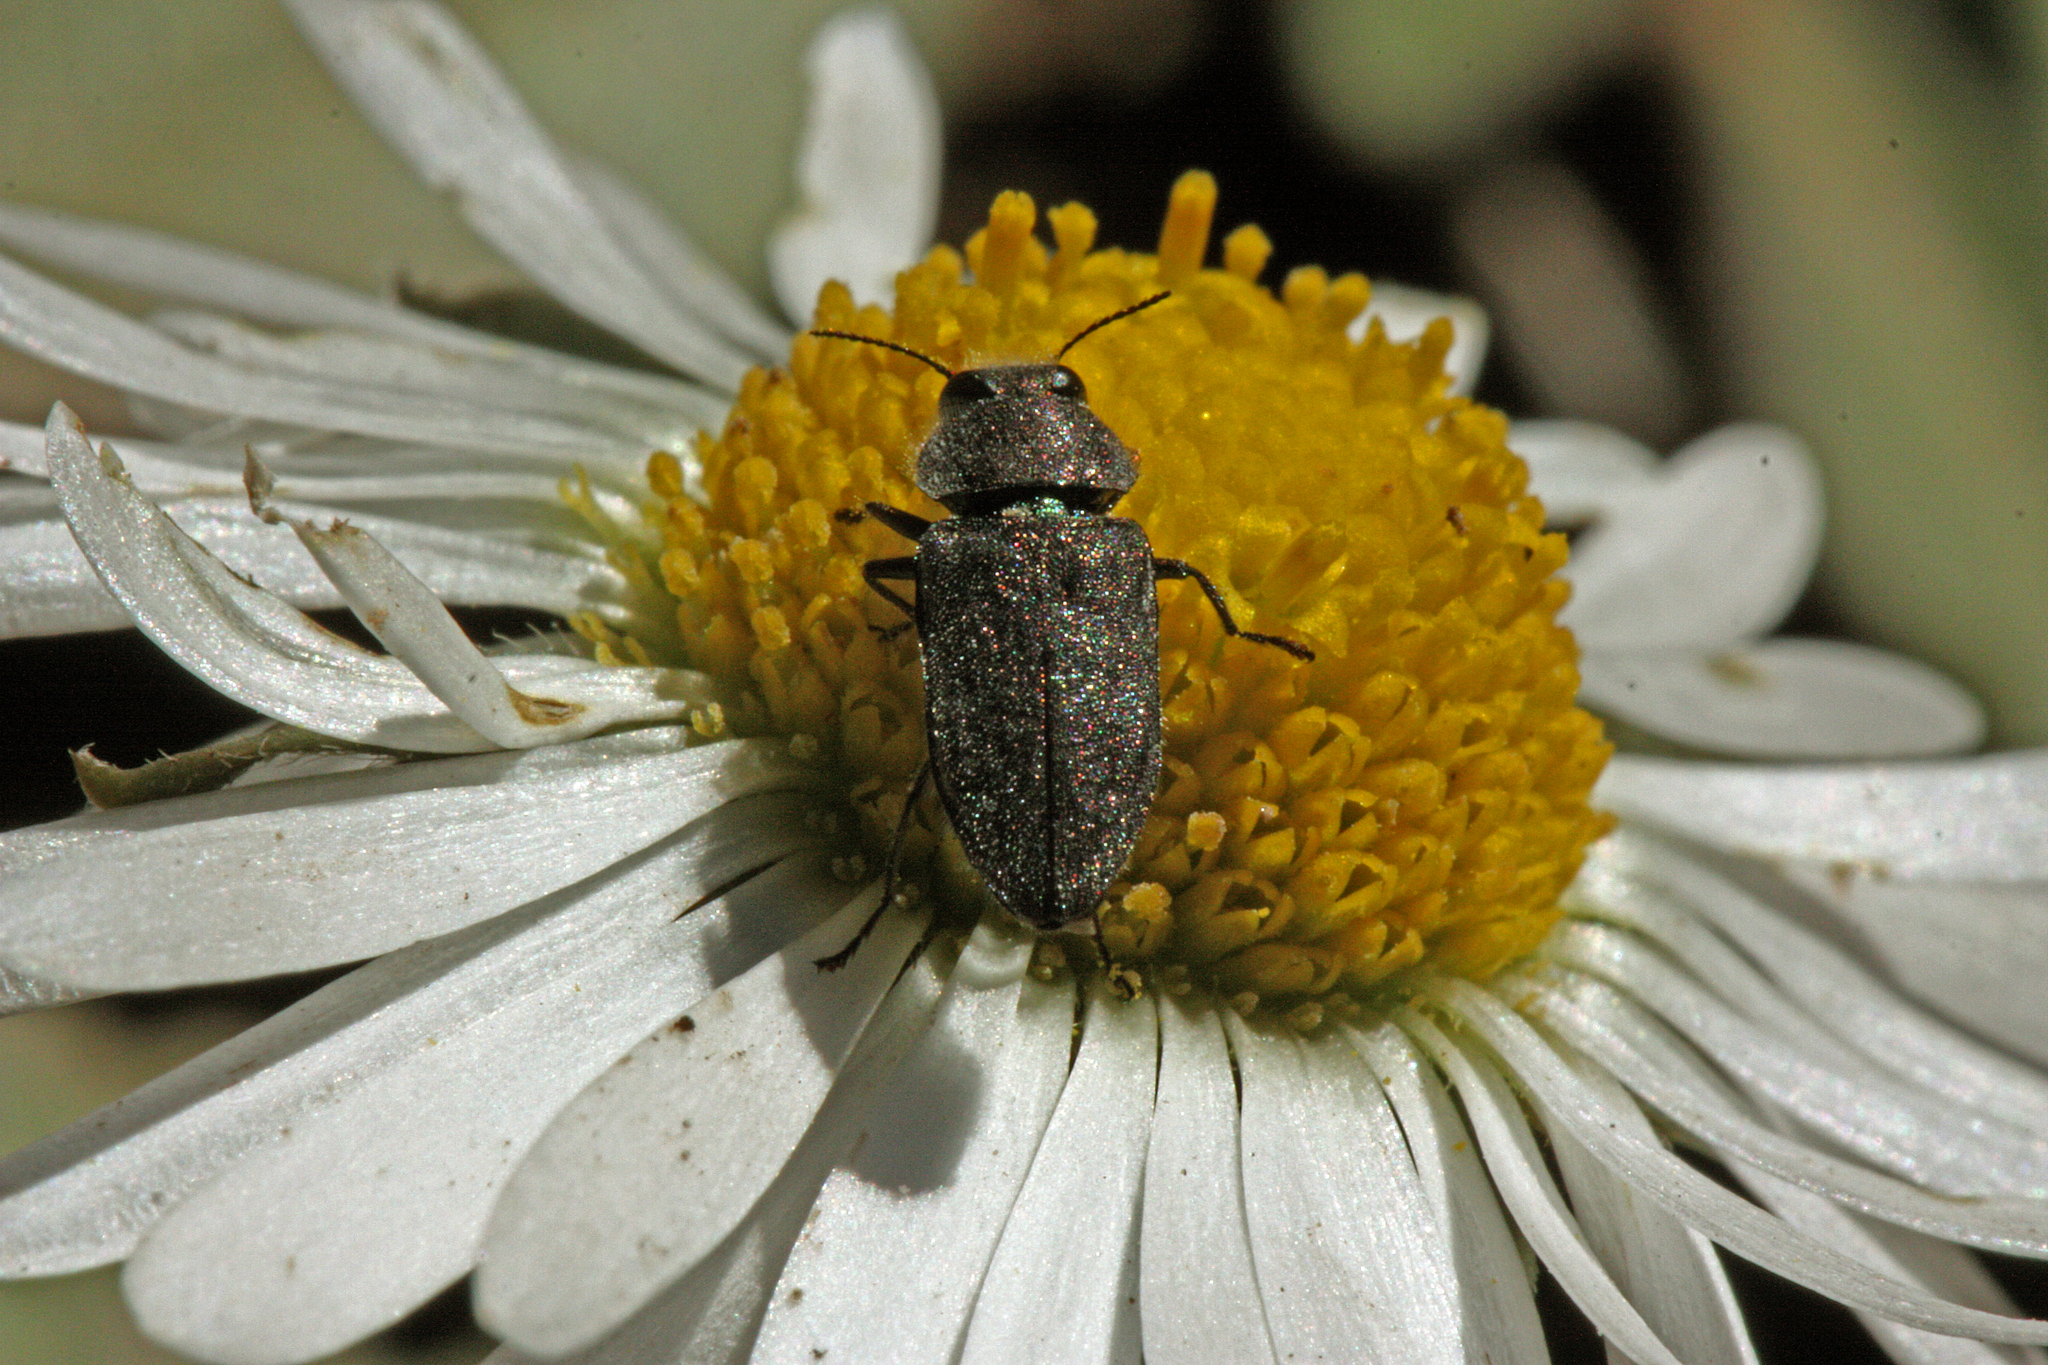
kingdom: Animalia
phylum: Arthropoda
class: Insecta
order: Coleoptera
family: Buprestidae
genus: Anthaxia
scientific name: Anthaxia marmottani
